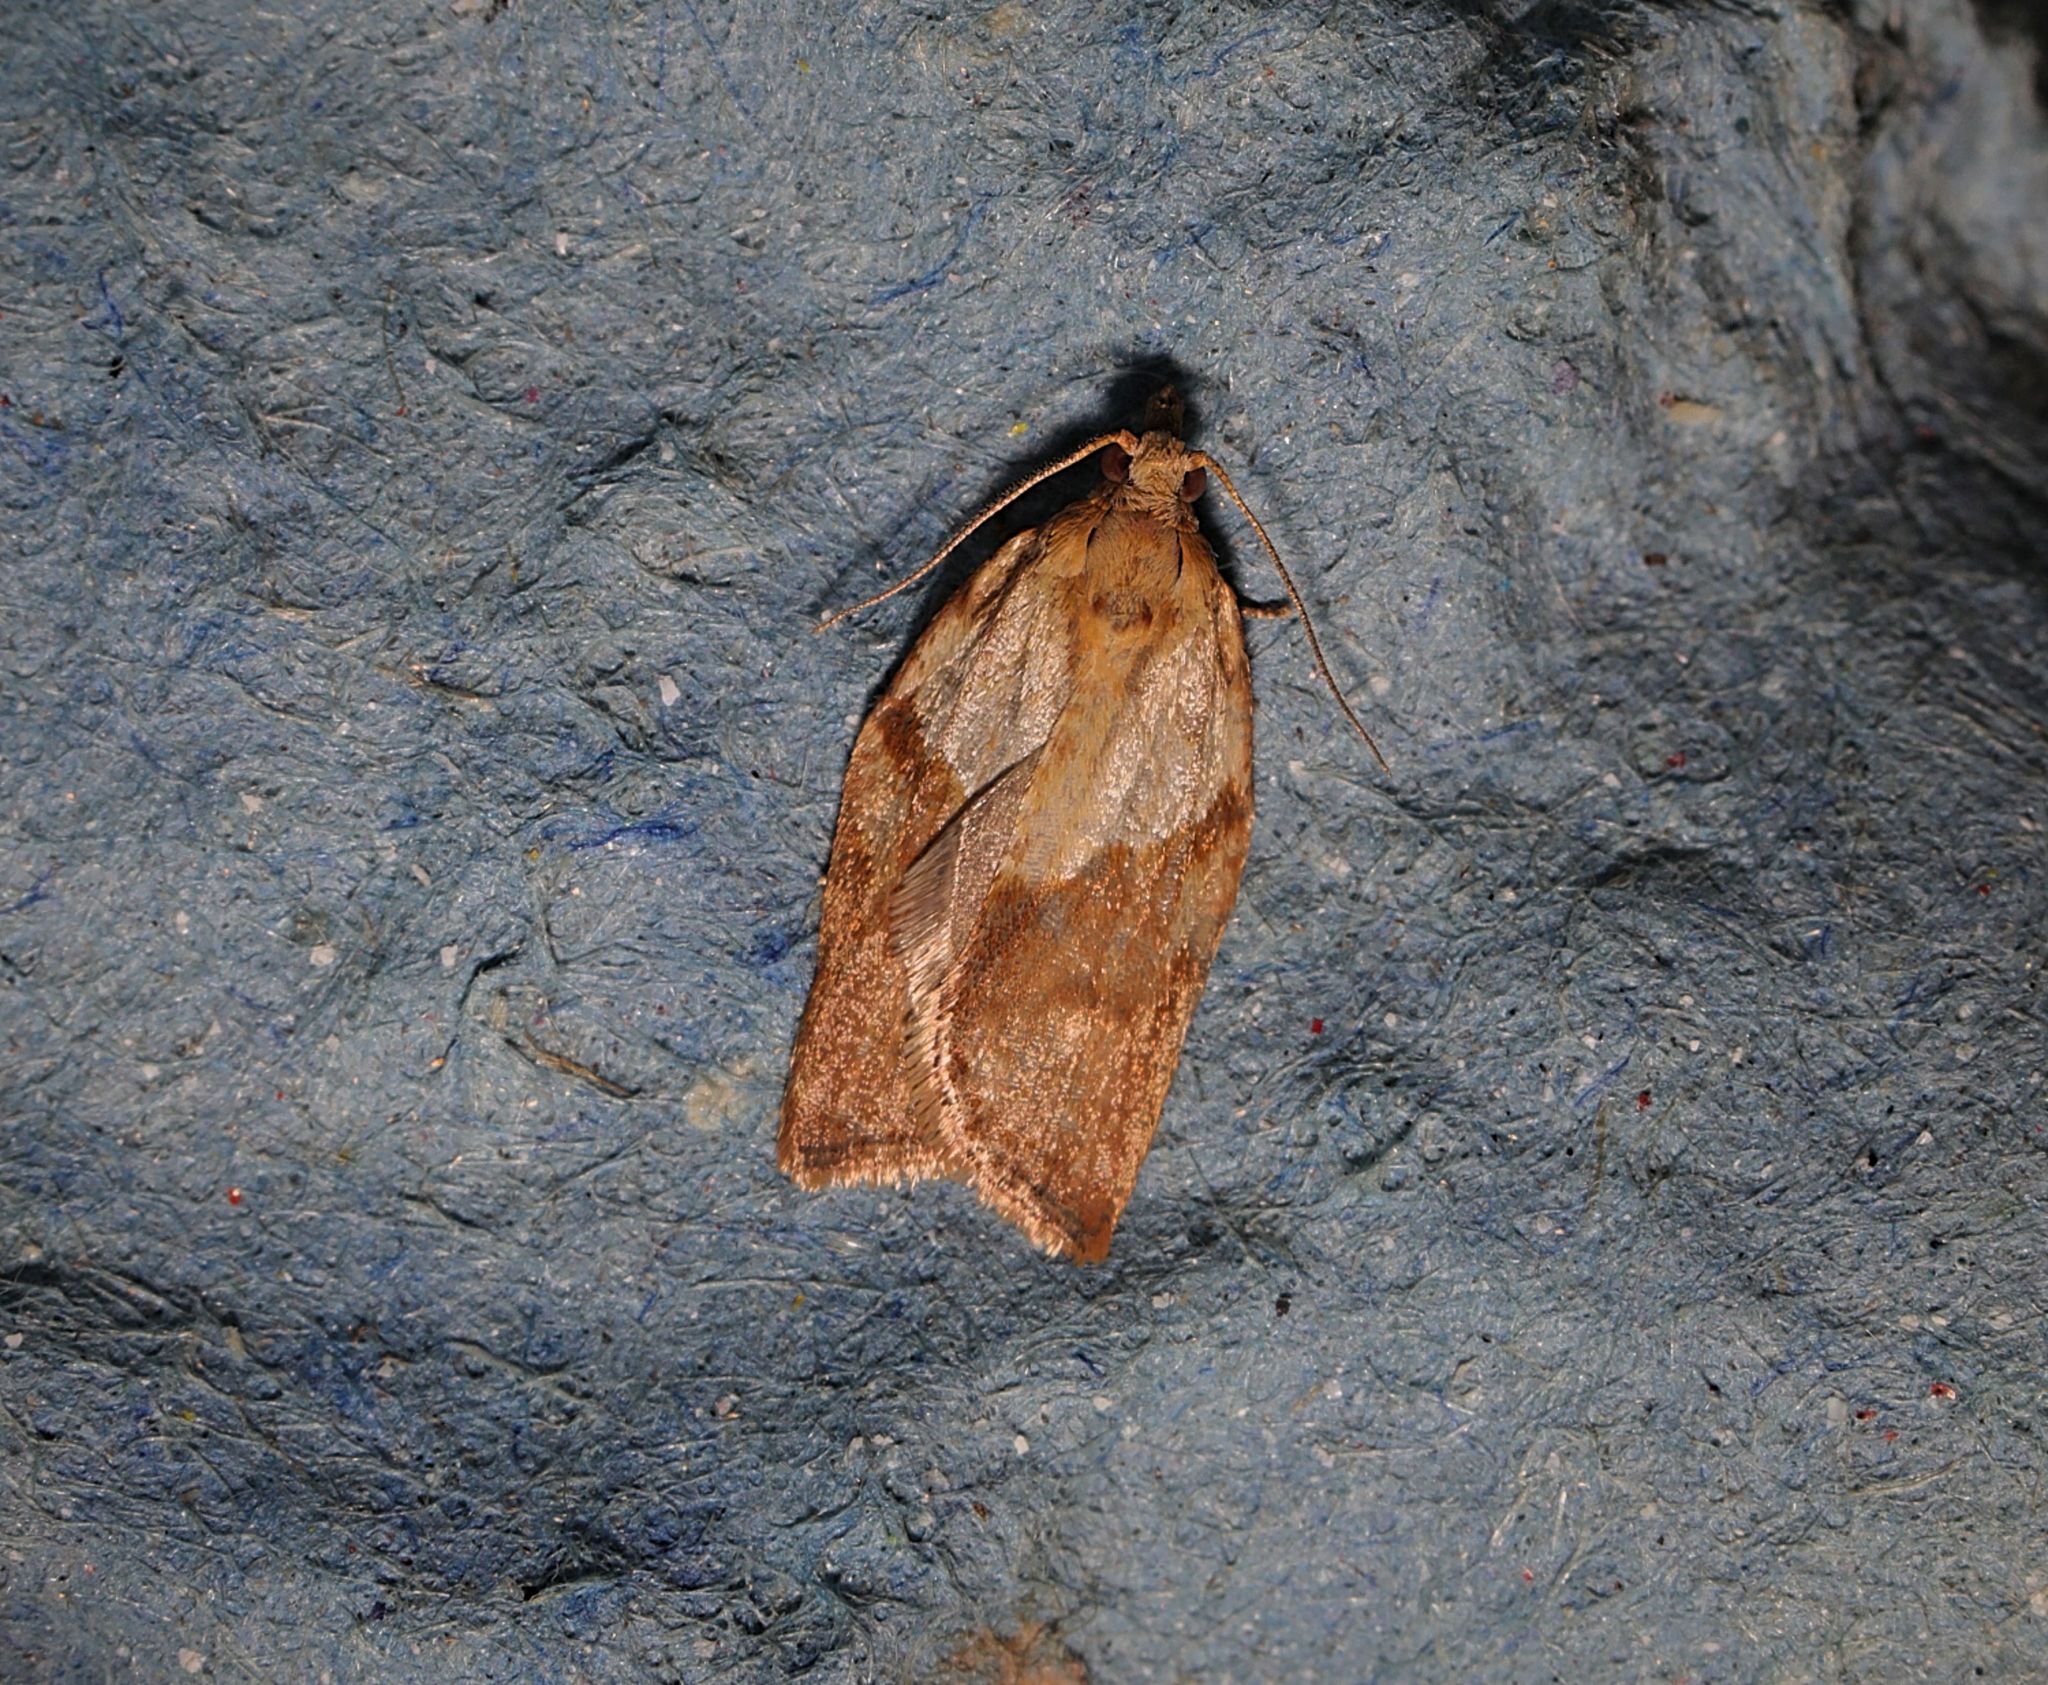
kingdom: Animalia
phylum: Arthropoda
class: Insecta
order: Lepidoptera
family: Tortricidae
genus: Epiphyas
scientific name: Epiphyas postvittana
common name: Light brown apple moth
